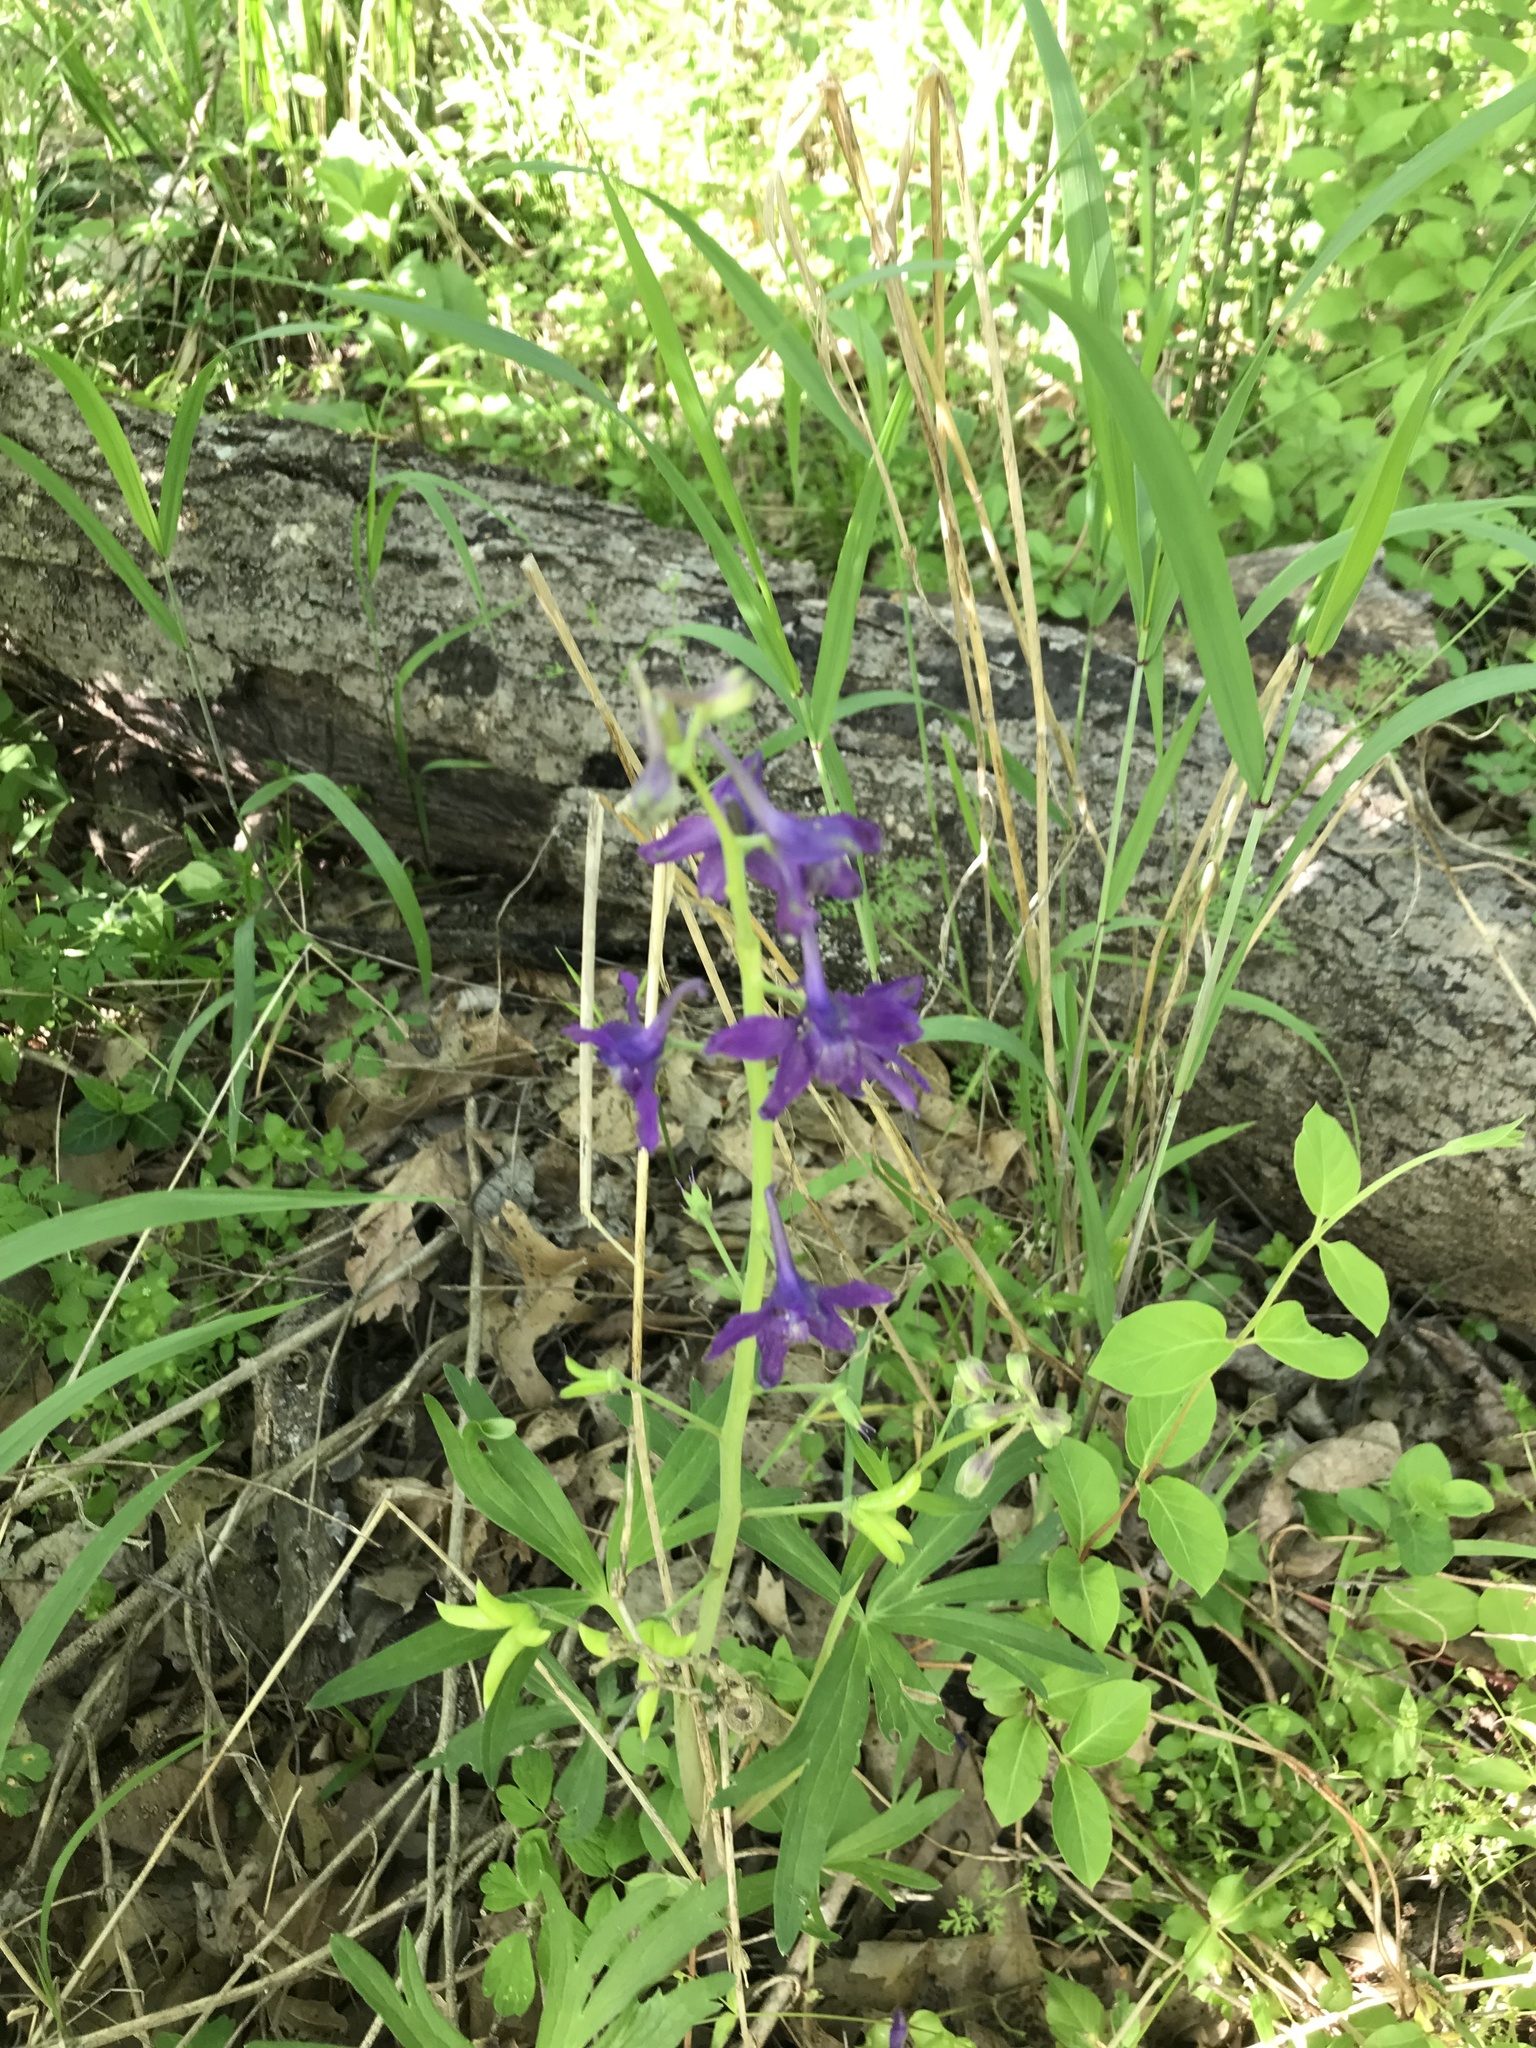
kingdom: Plantae
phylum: Tracheophyta
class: Magnoliopsida
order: Ranunculales
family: Ranunculaceae
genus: Delphinium
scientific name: Delphinium tricorne
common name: Dwarf larkspur
